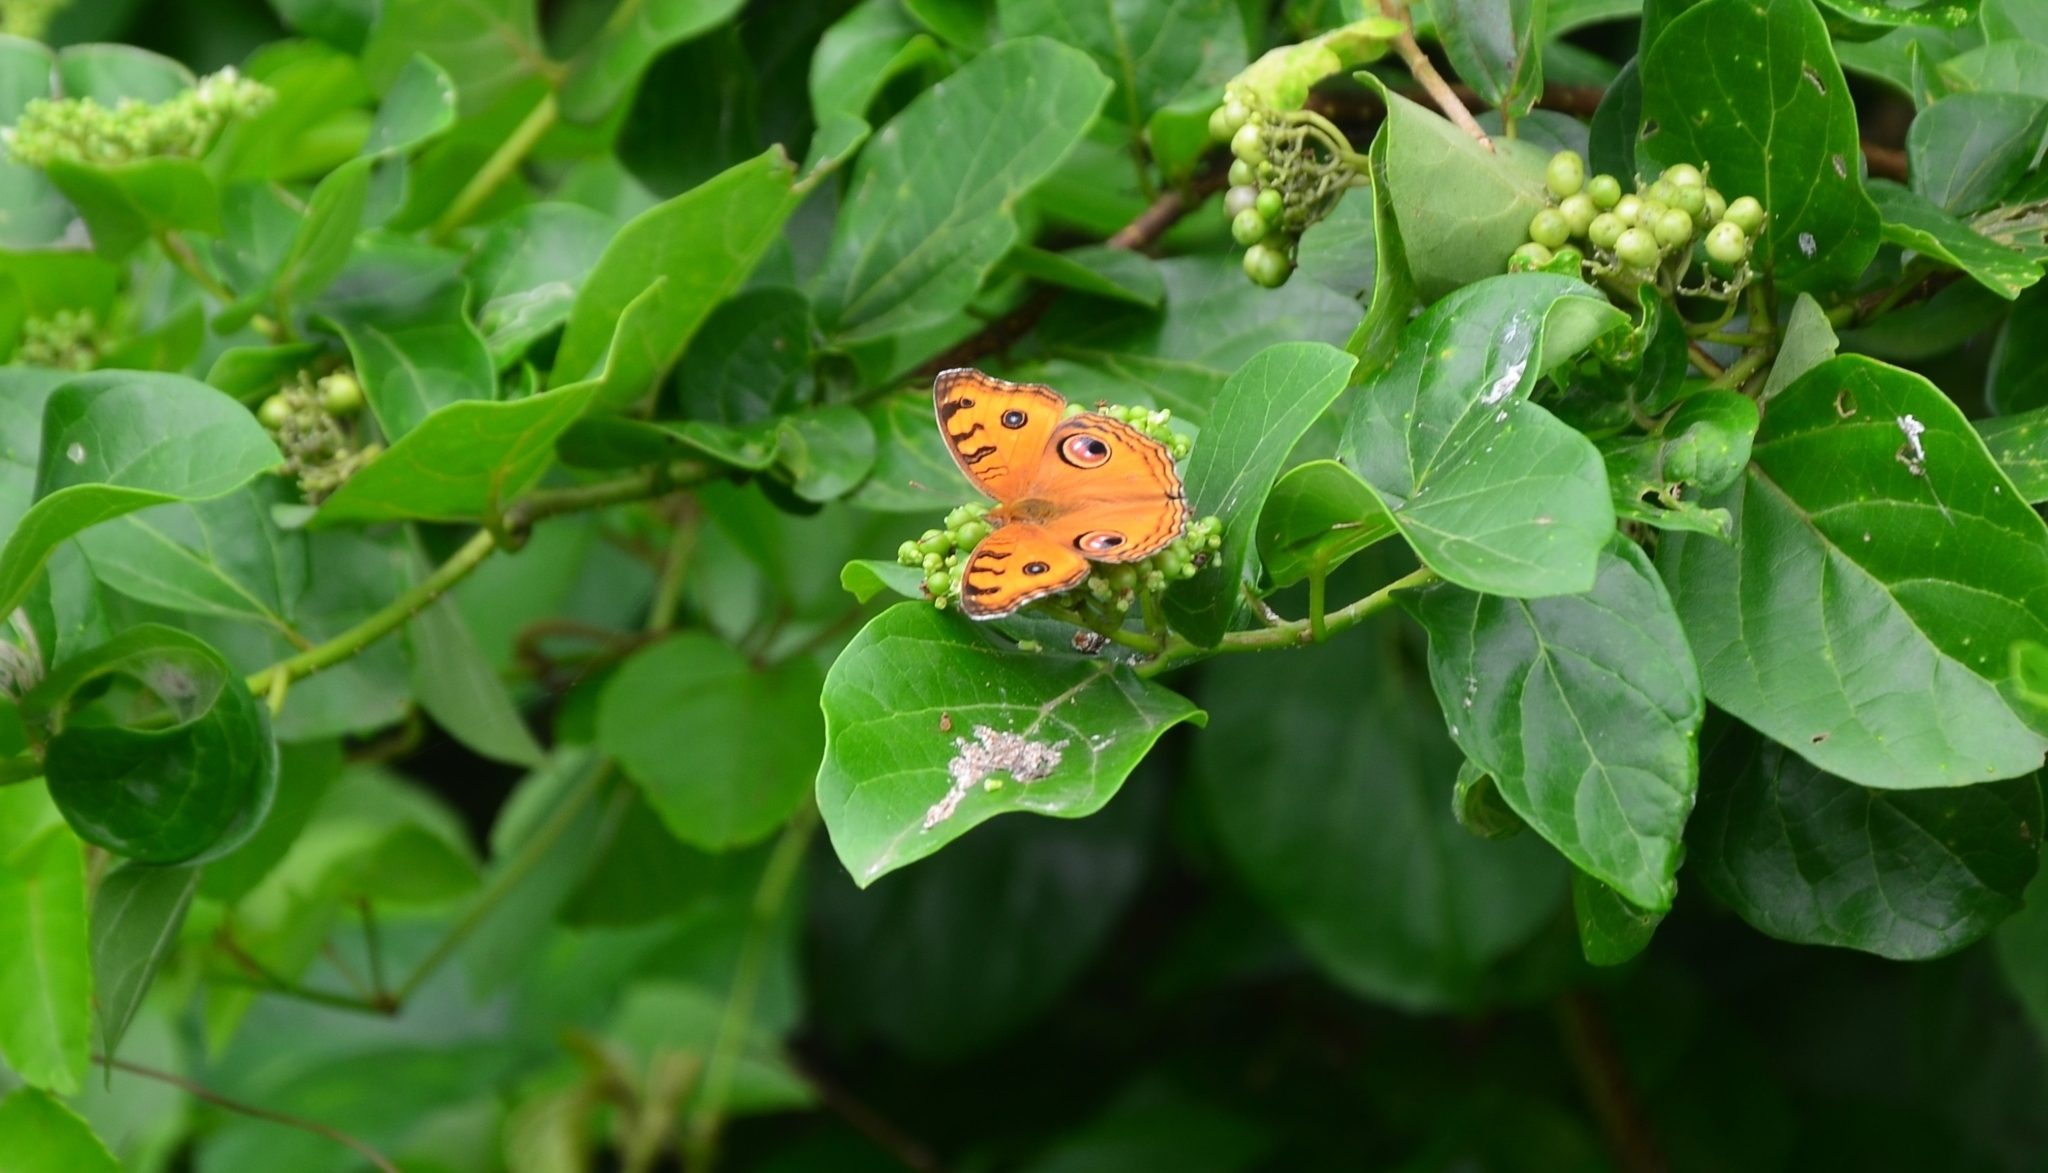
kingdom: Animalia
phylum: Arthropoda
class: Insecta
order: Lepidoptera
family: Nymphalidae
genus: Junonia
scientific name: Junonia almana
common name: Peacock pansy
